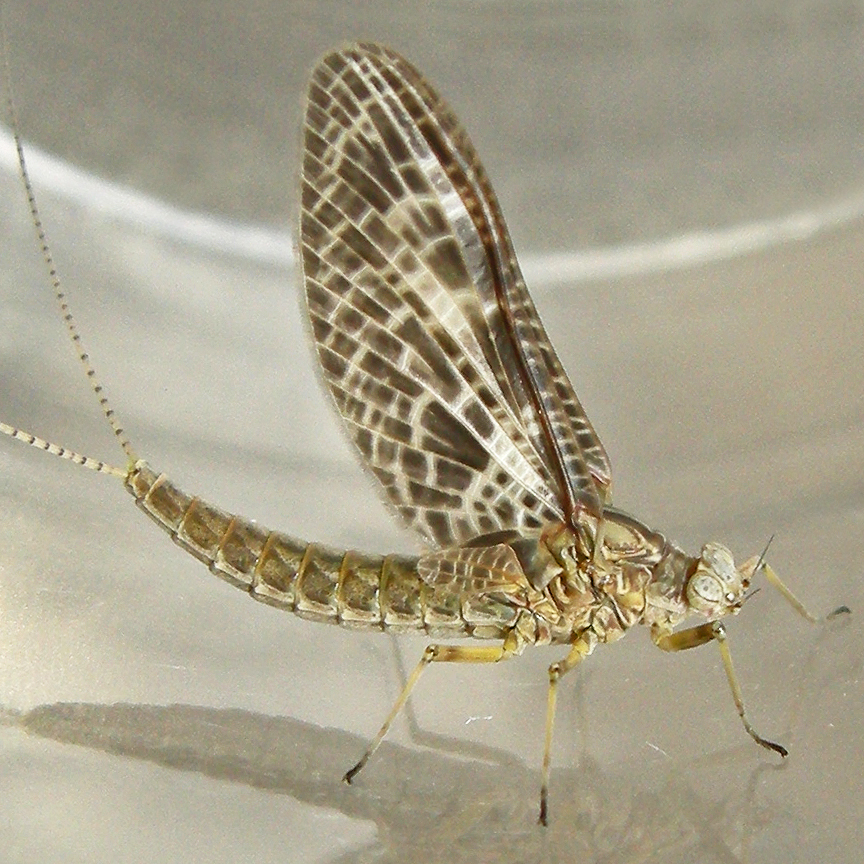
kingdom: Animalia
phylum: Arthropoda
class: Insecta
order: Ephemeroptera
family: Baetidae
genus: Callibaetis
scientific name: Callibaetis ferrugineus
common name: Red speckled dun
